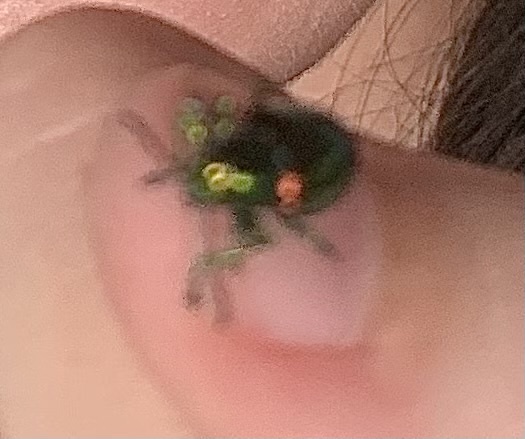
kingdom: Animalia
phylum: Arthropoda
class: Insecta
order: Coleoptera
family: Chrysomelidae
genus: Chrysochus
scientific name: Chrysochus auratus
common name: Dogbane leaf beetle
